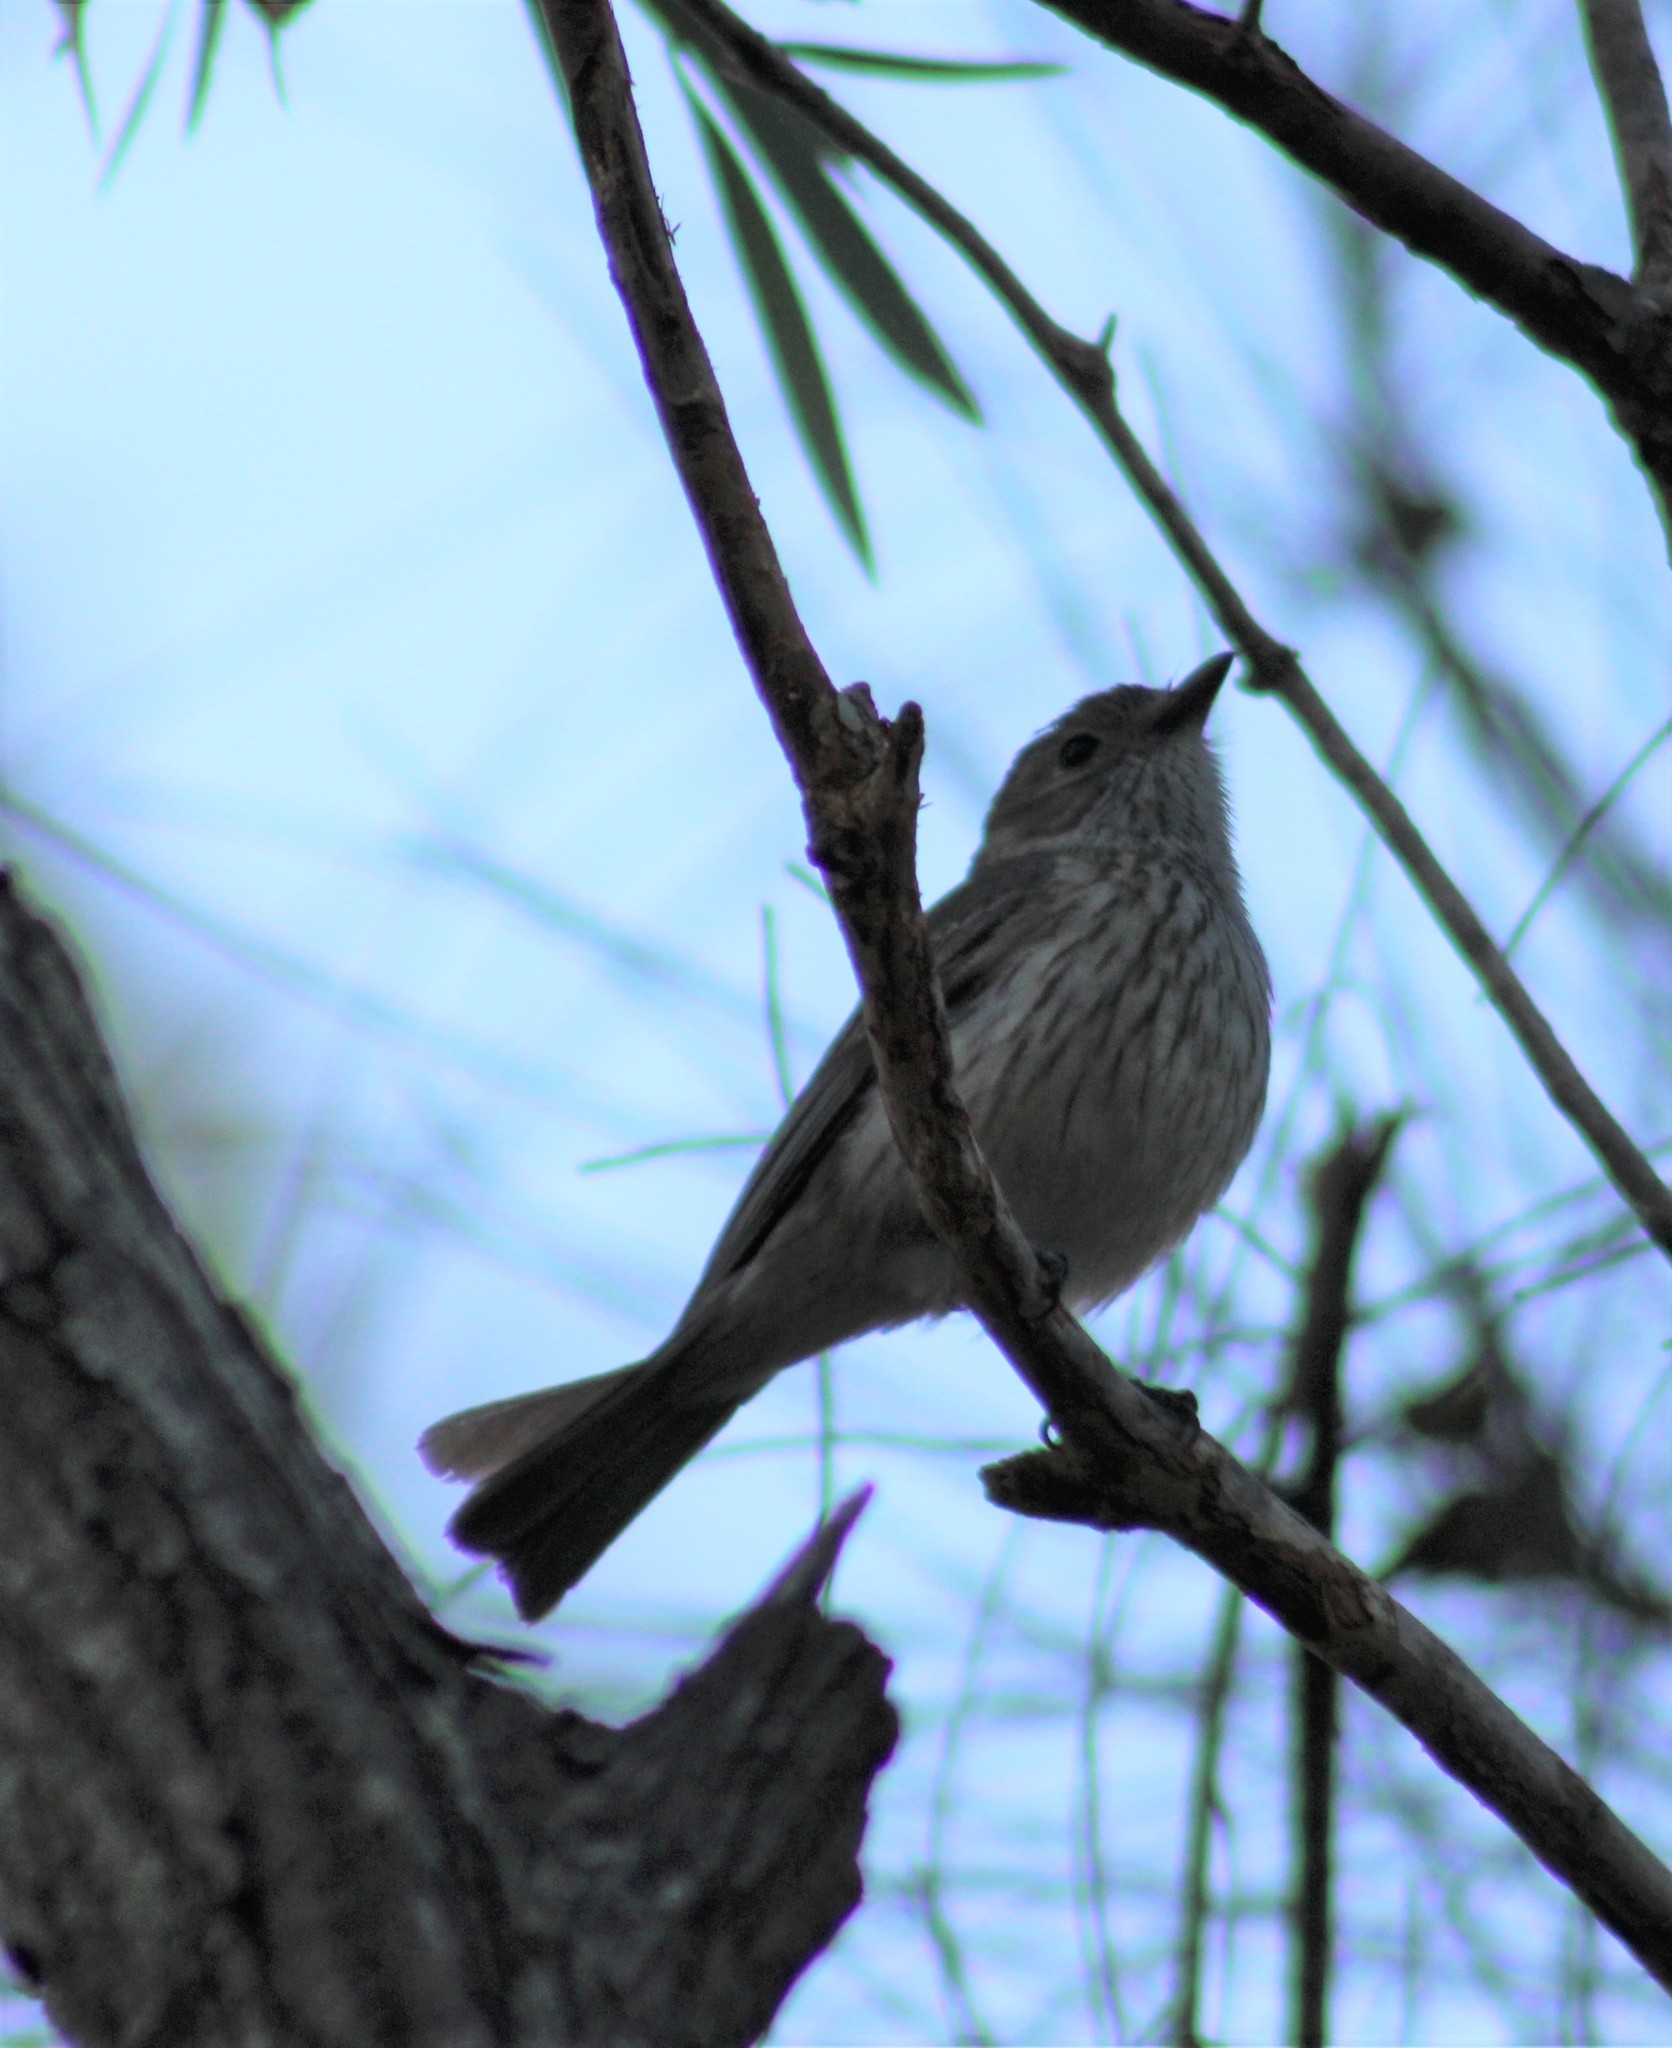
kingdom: Animalia
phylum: Chordata
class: Aves
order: Passeriformes
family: Pachycephalidae
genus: Pachycephala
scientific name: Pachycephala rufiventris
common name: Rufous whistler
